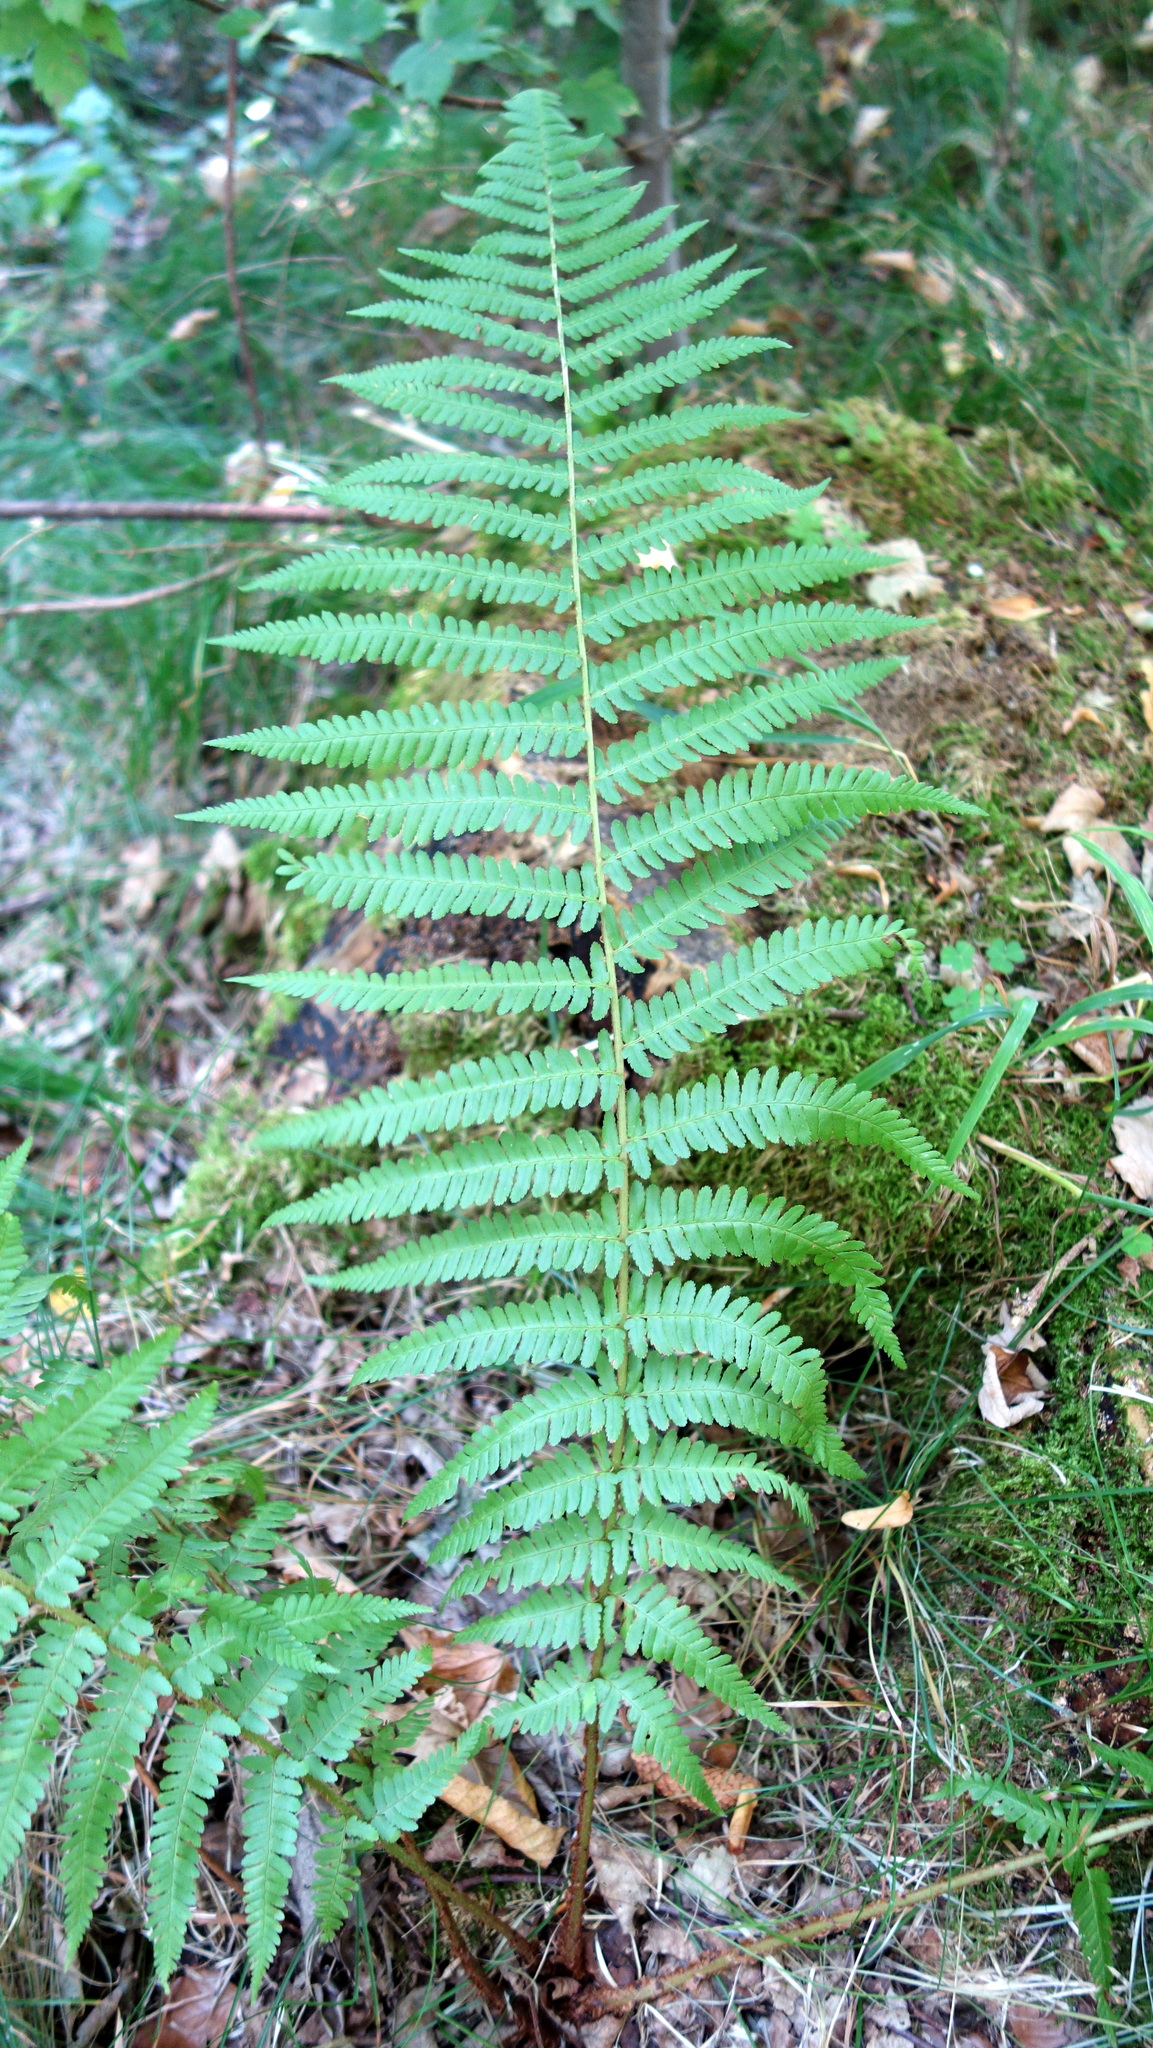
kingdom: Plantae
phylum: Tracheophyta
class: Polypodiopsida
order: Polypodiales
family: Dryopteridaceae
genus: Dryopteris
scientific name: Dryopteris filix-mas
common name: Male fern
